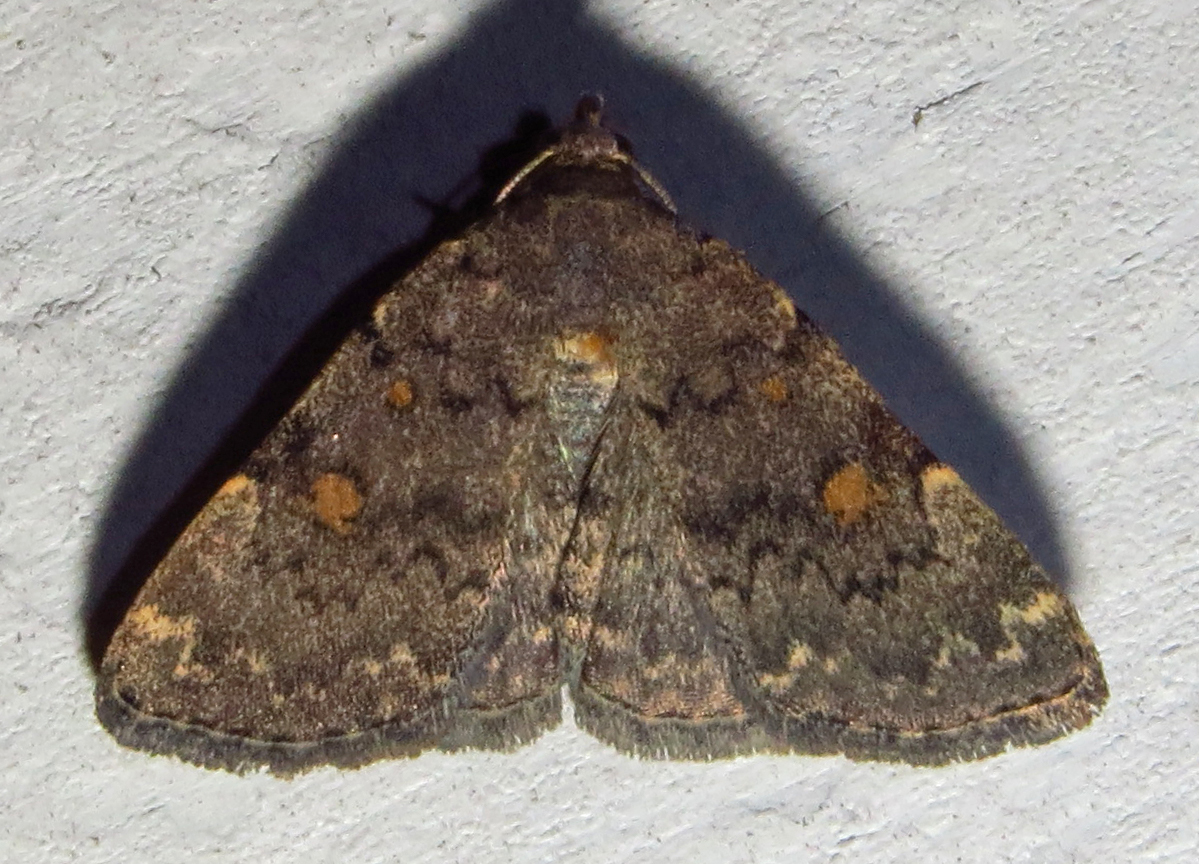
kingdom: Animalia
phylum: Arthropoda
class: Insecta
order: Lepidoptera
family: Erebidae
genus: Idia
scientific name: Idia aemula
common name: Common idia moth
